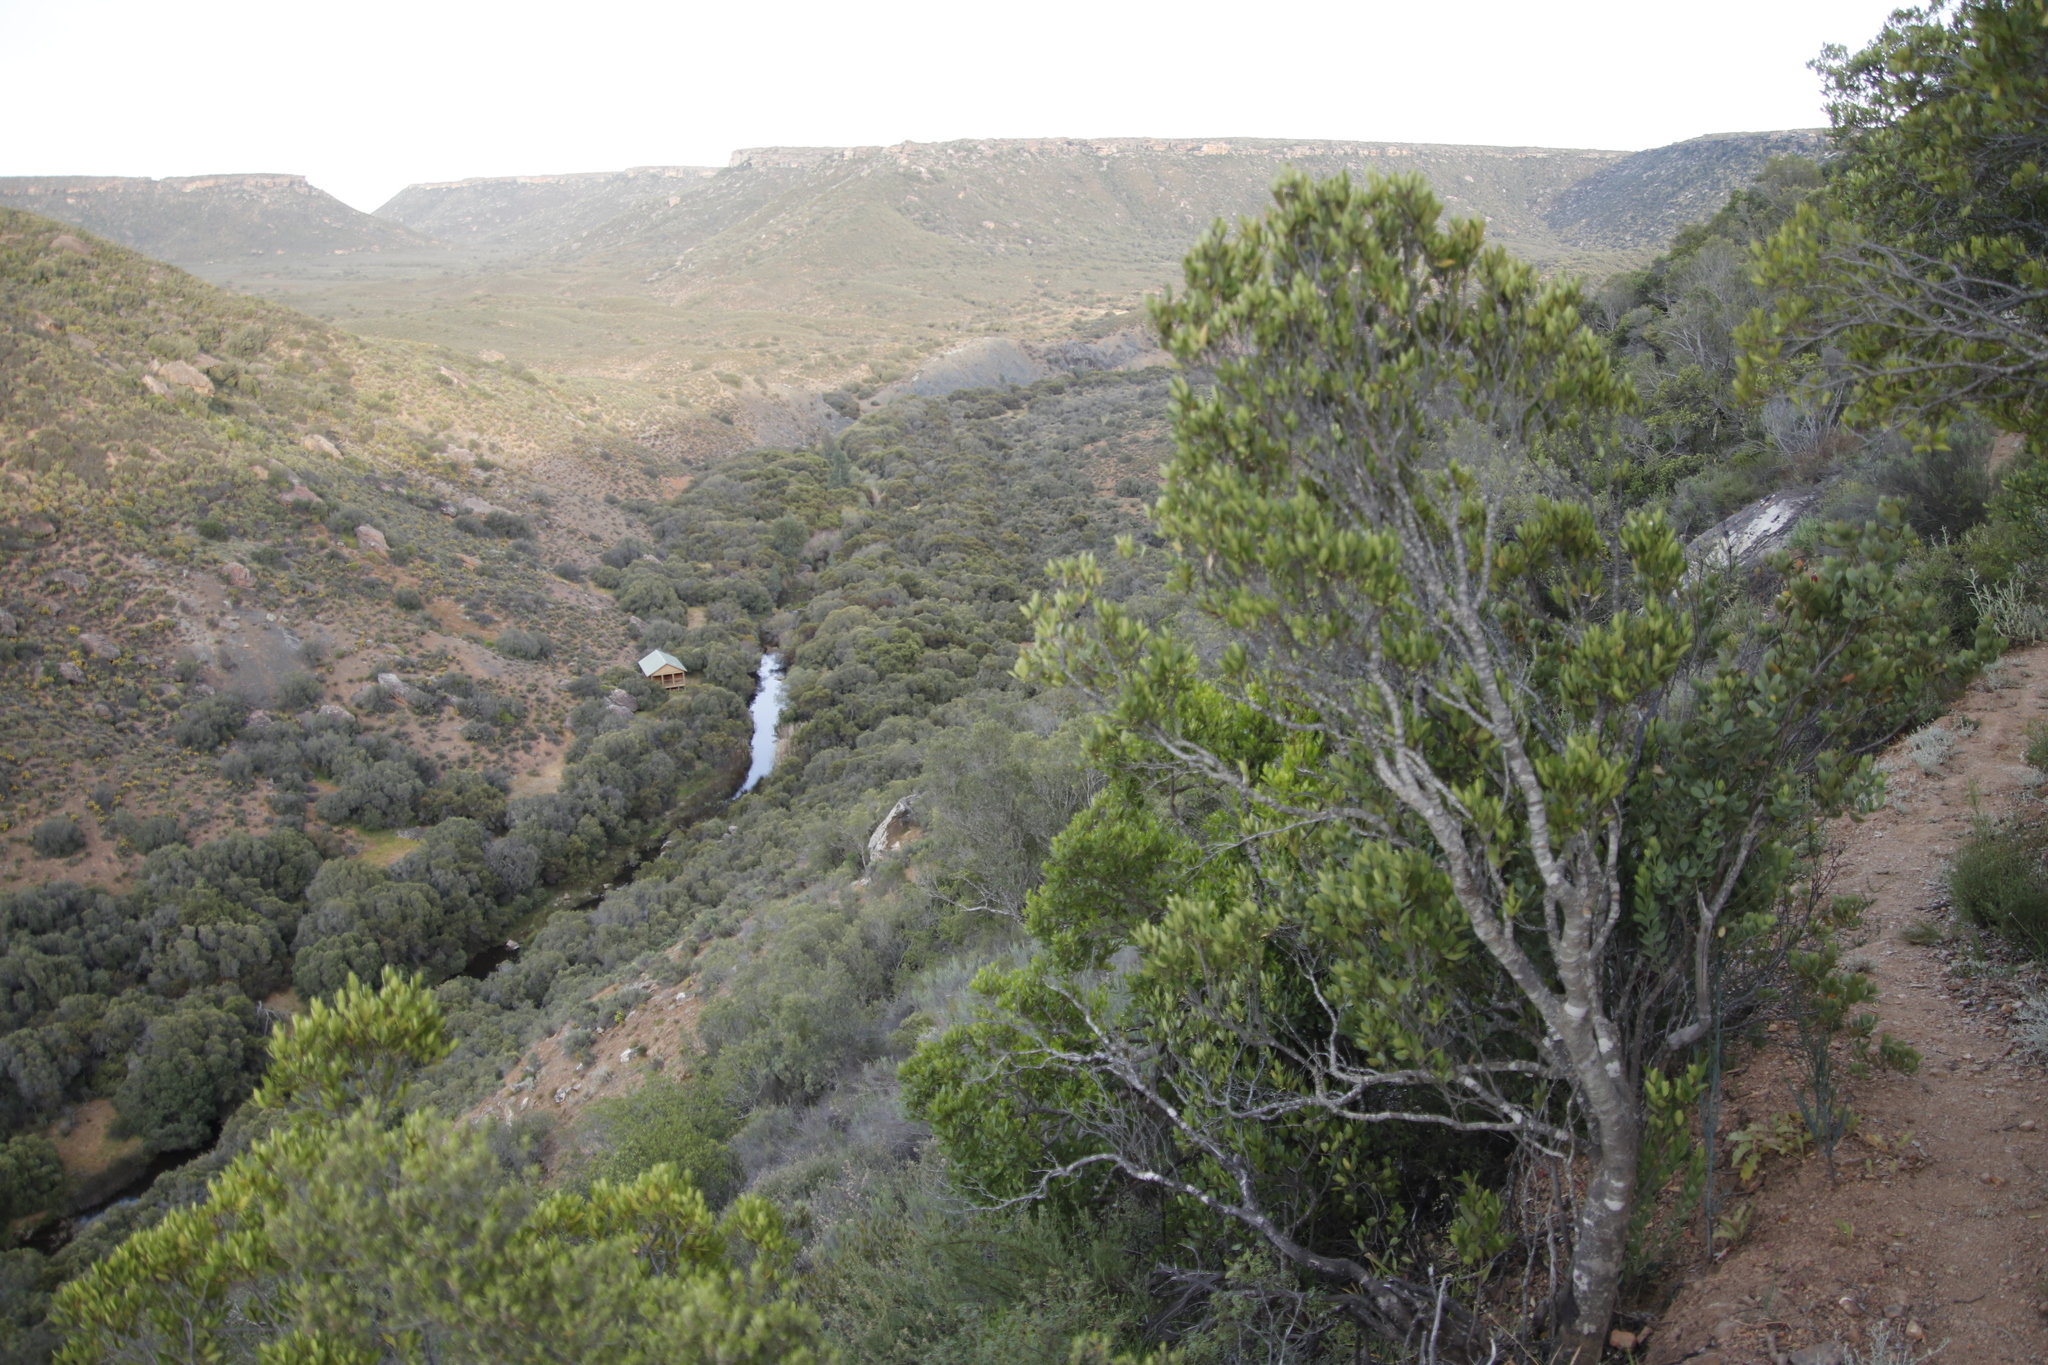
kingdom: Plantae
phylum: Tracheophyta
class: Magnoliopsida
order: Celastrales
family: Celastraceae
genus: Gymnosporia
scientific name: Gymnosporia laurina
